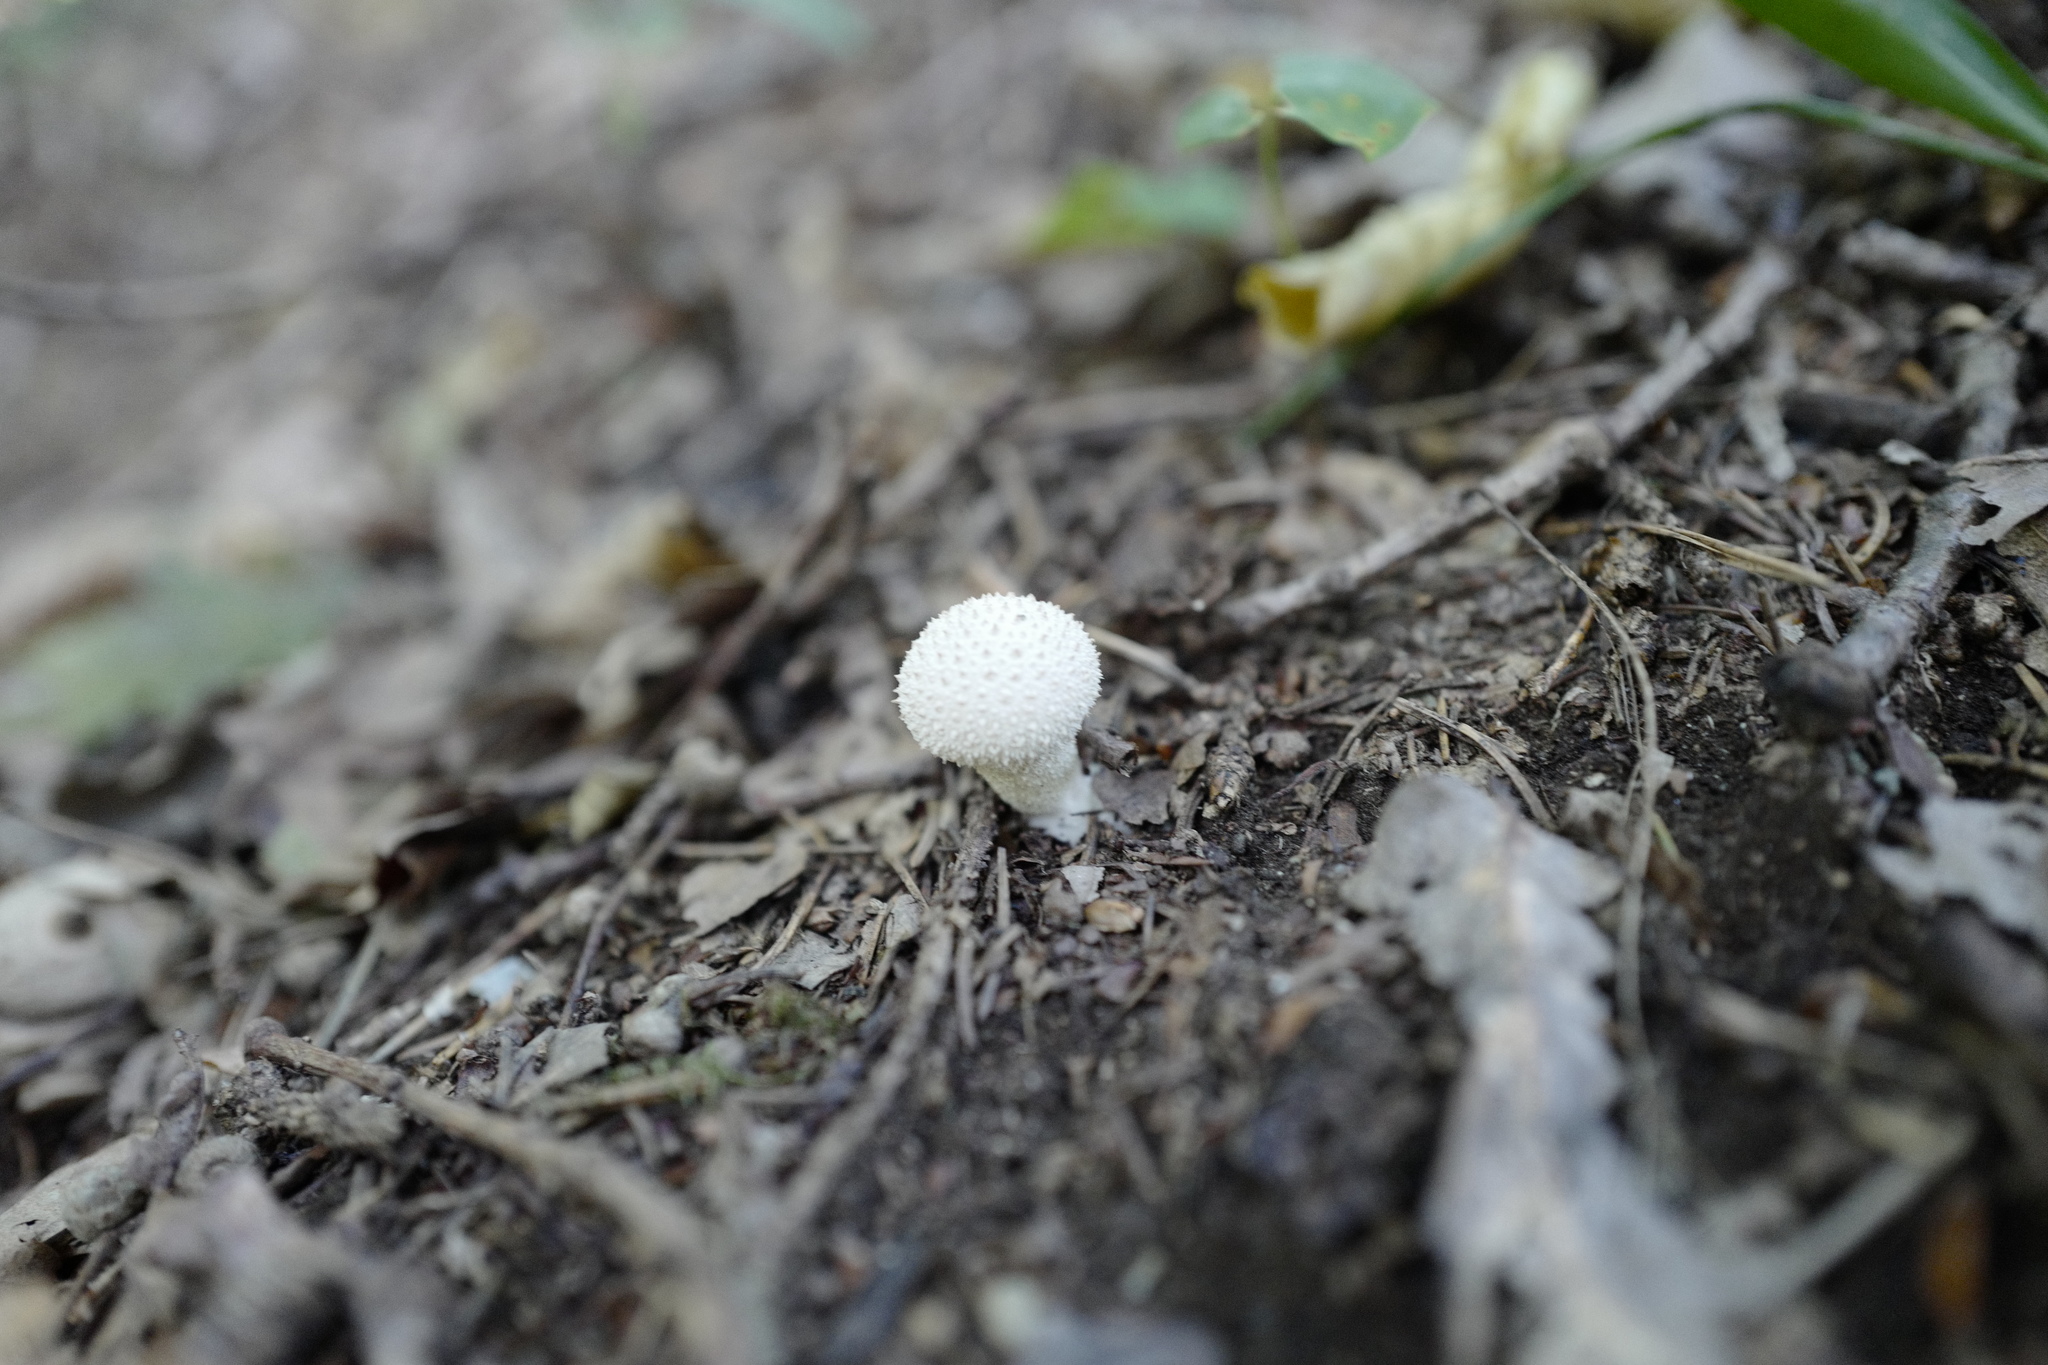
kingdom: Fungi
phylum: Basidiomycota
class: Agaricomycetes
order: Agaricales
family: Lycoperdaceae
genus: Lycoperdon
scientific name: Lycoperdon perlatum
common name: Common puffball
